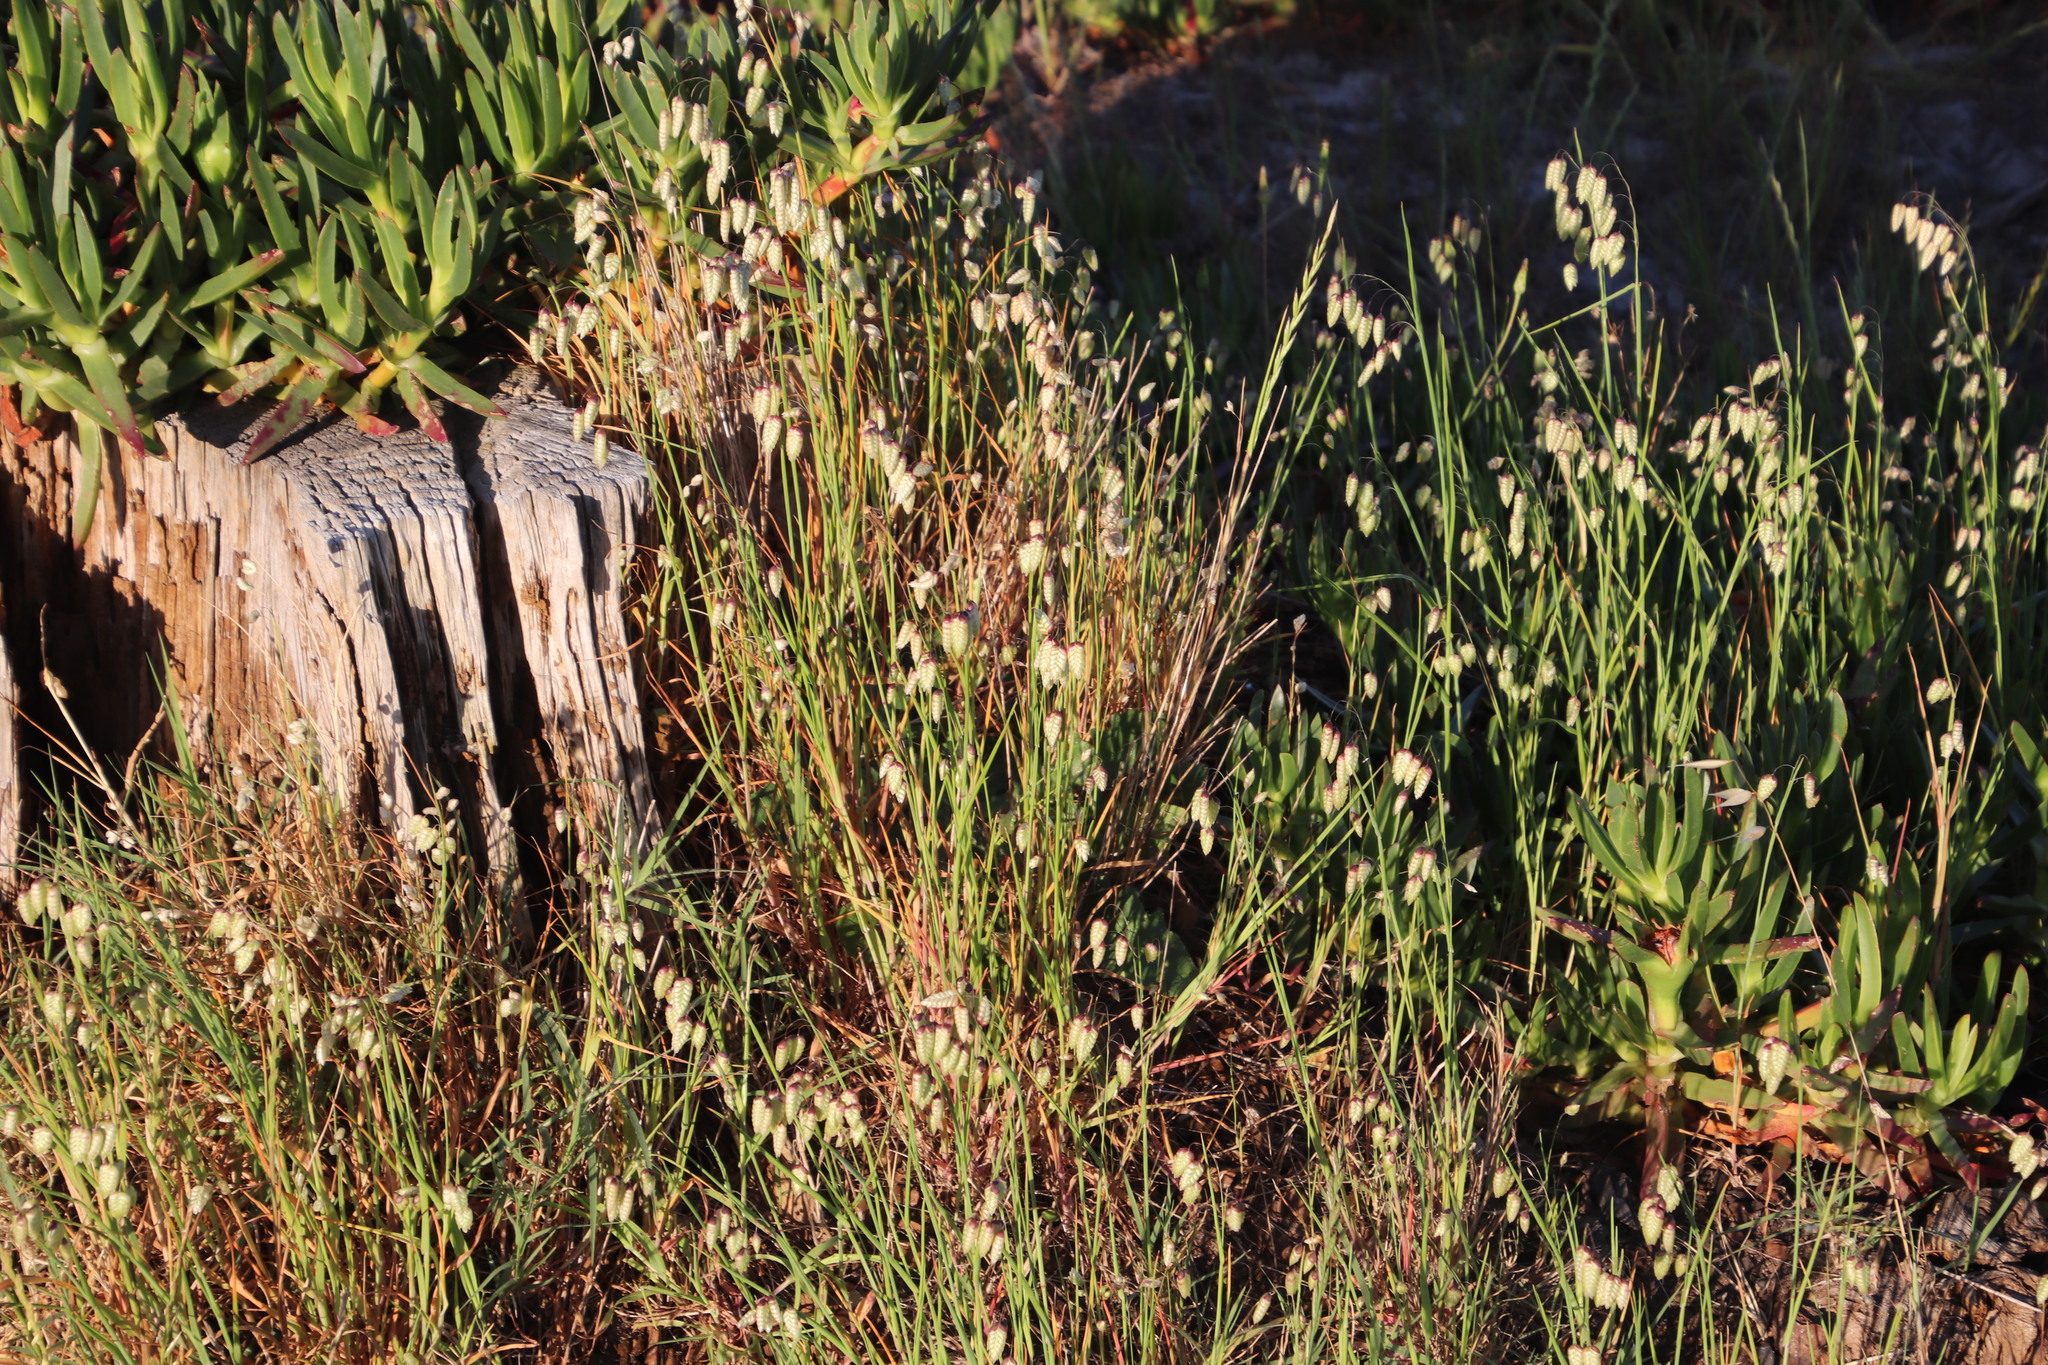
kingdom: Plantae
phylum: Tracheophyta
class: Liliopsida
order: Poales
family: Poaceae
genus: Briza
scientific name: Briza maxima
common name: Big quakinggrass
